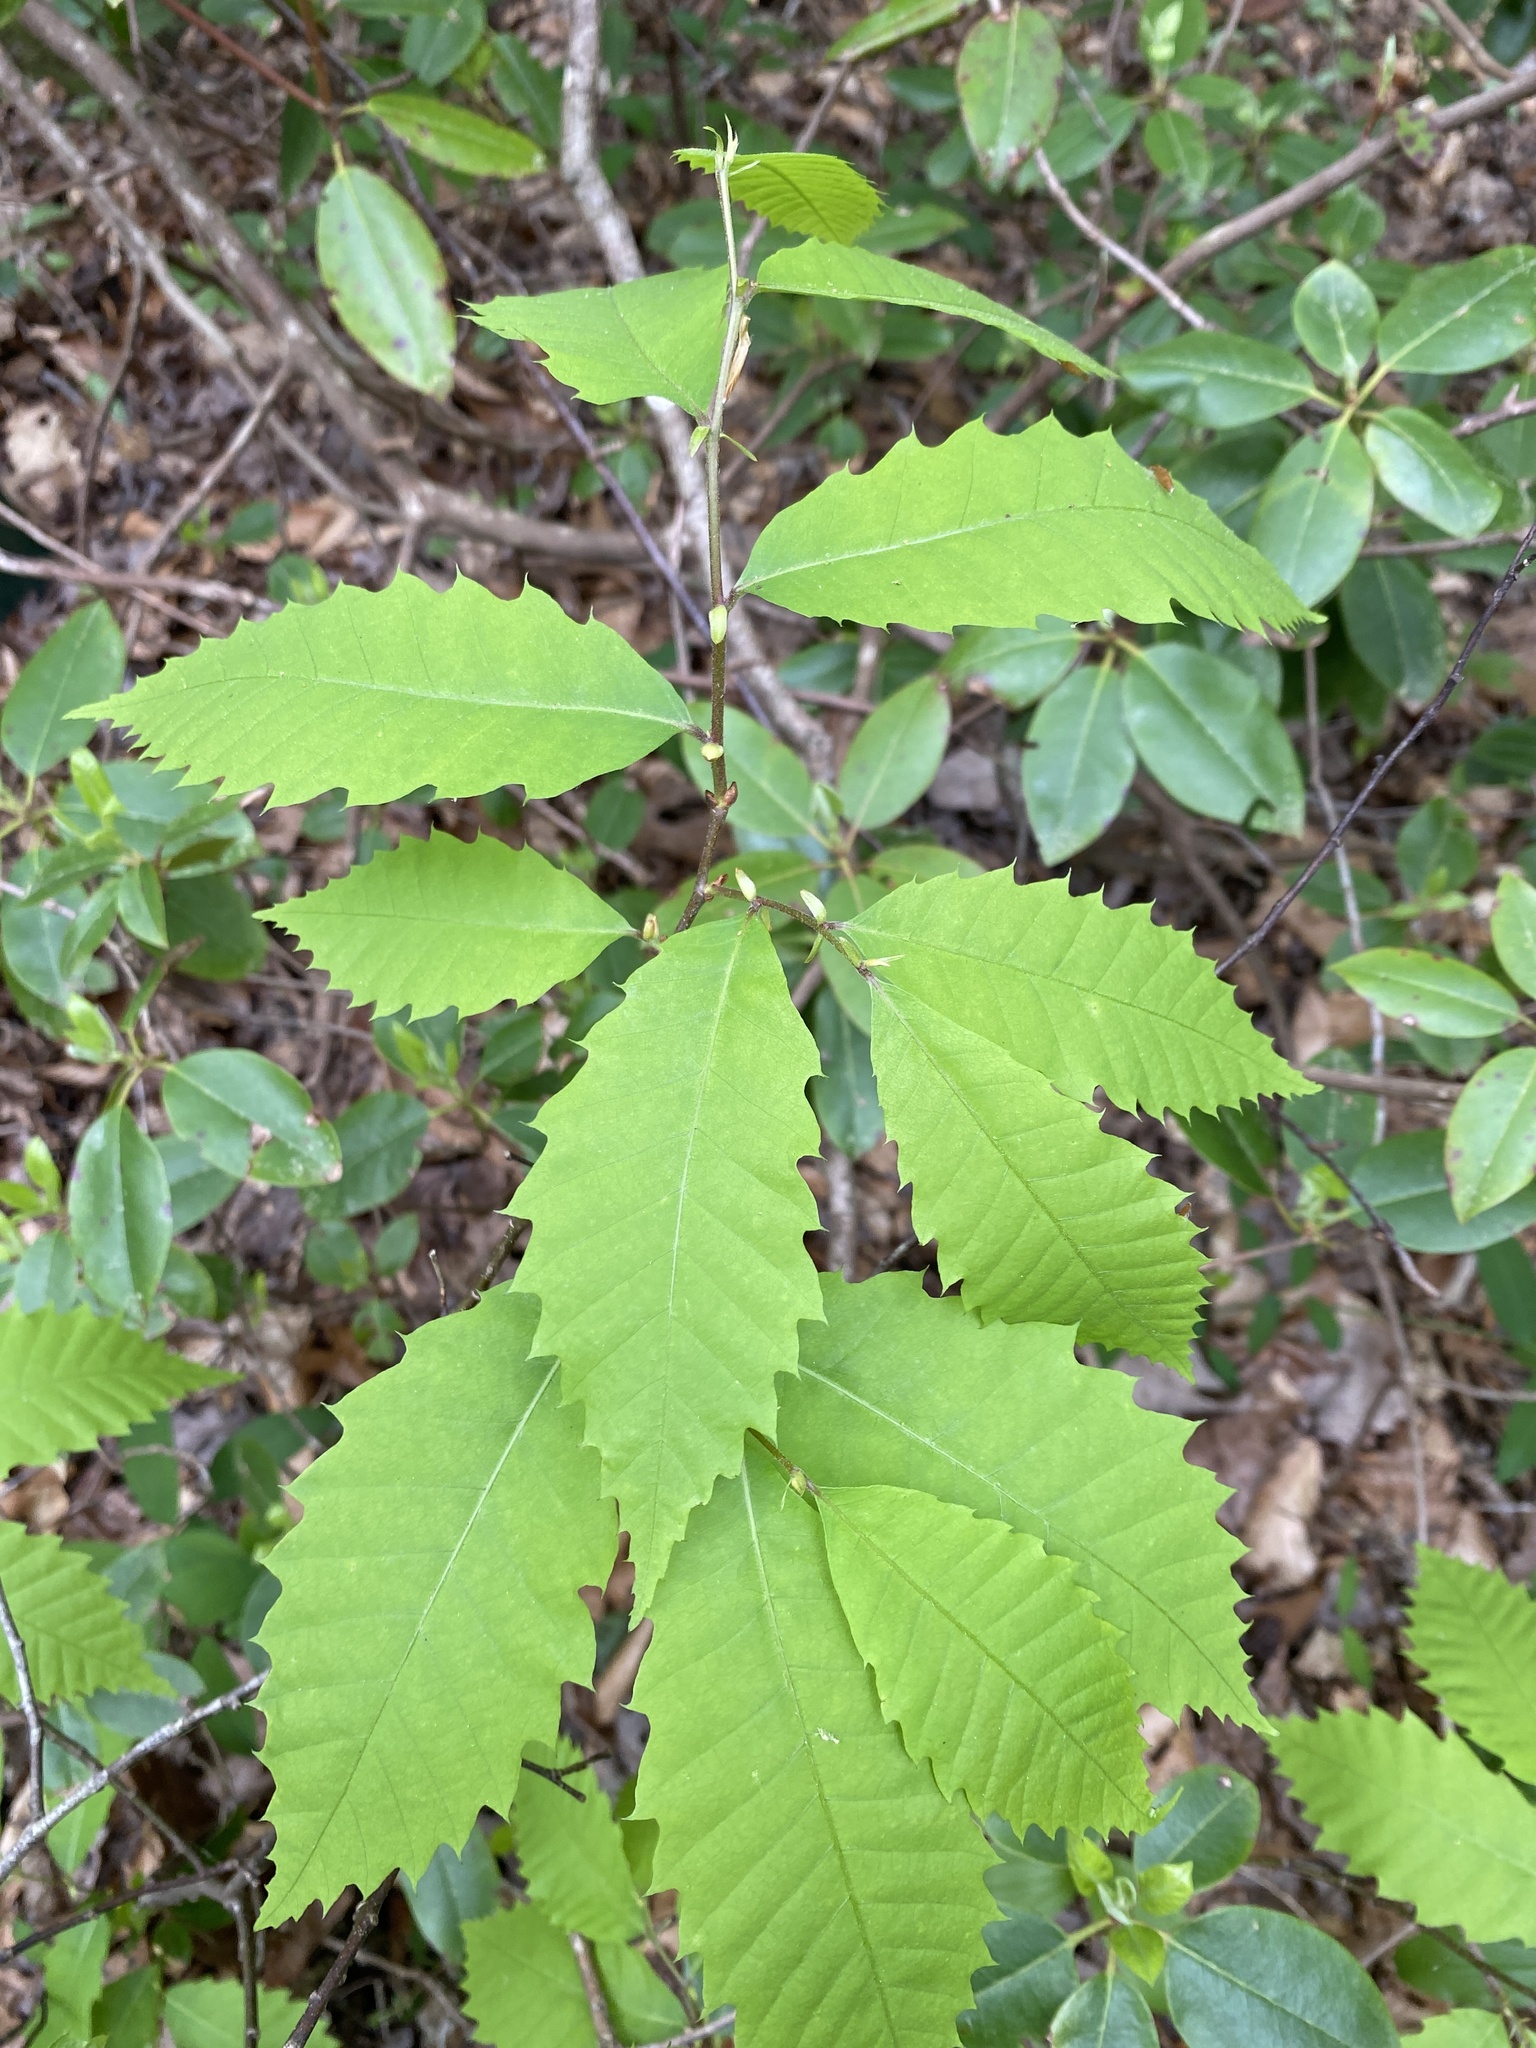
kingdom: Plantae
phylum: Tracheophyta
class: Magnoliopsida
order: Fagales
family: Fagaceae
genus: Castanea
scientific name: Castanea dentata
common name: American chestnut
